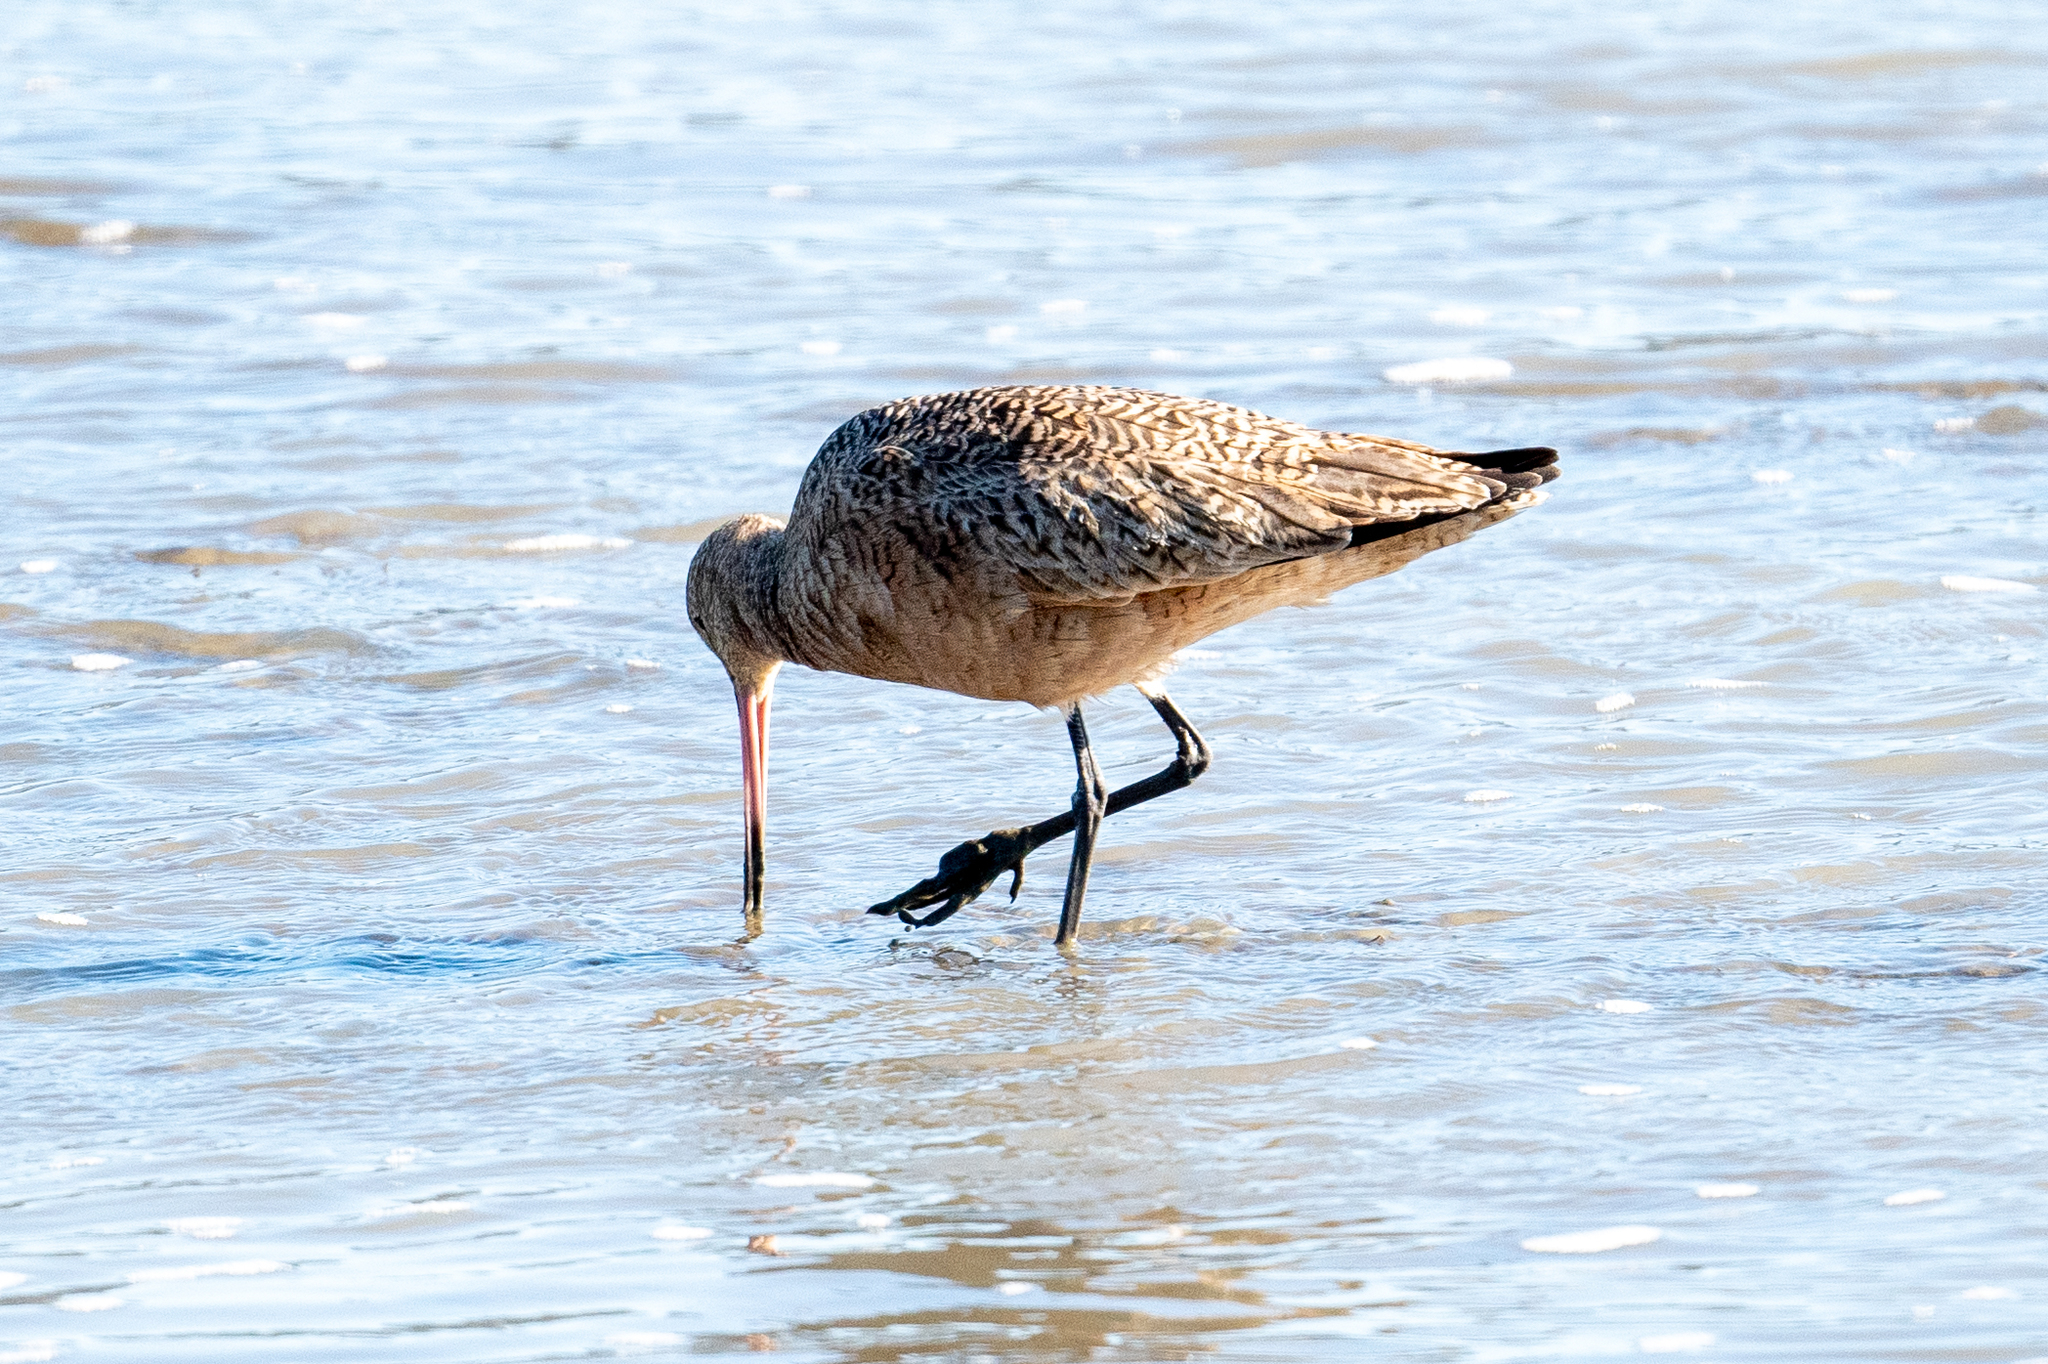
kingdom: Animalia
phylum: Chordata
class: Aves
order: Charadriiformes
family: Scolopacidae
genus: Limosa
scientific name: Limosa fedoa
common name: Marbled godwit
